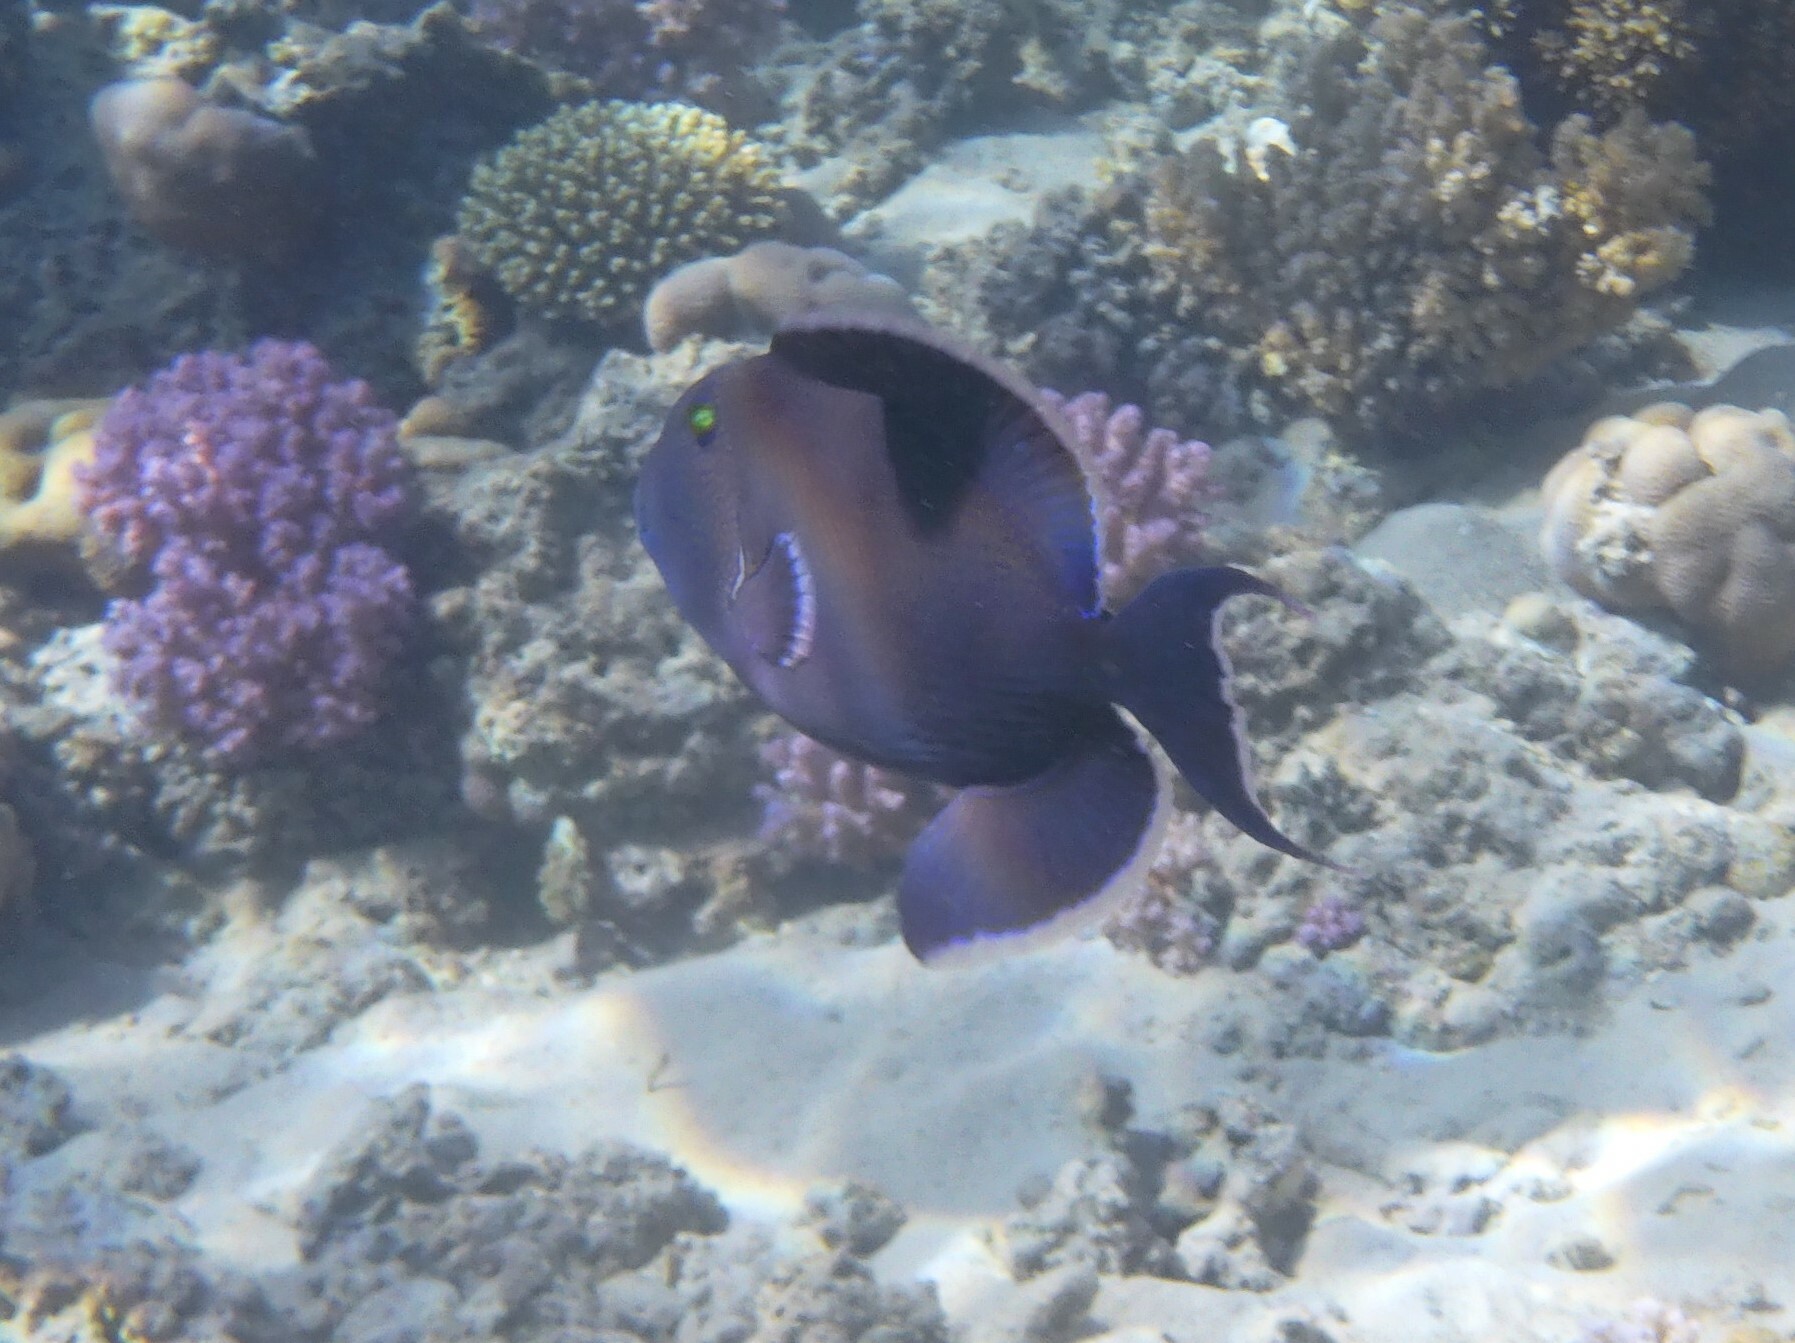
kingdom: Animalia
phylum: Chordata
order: Tetraodontiformes
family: Balistidae
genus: Pseudobalistes
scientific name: Pseudobalistes fuscus
